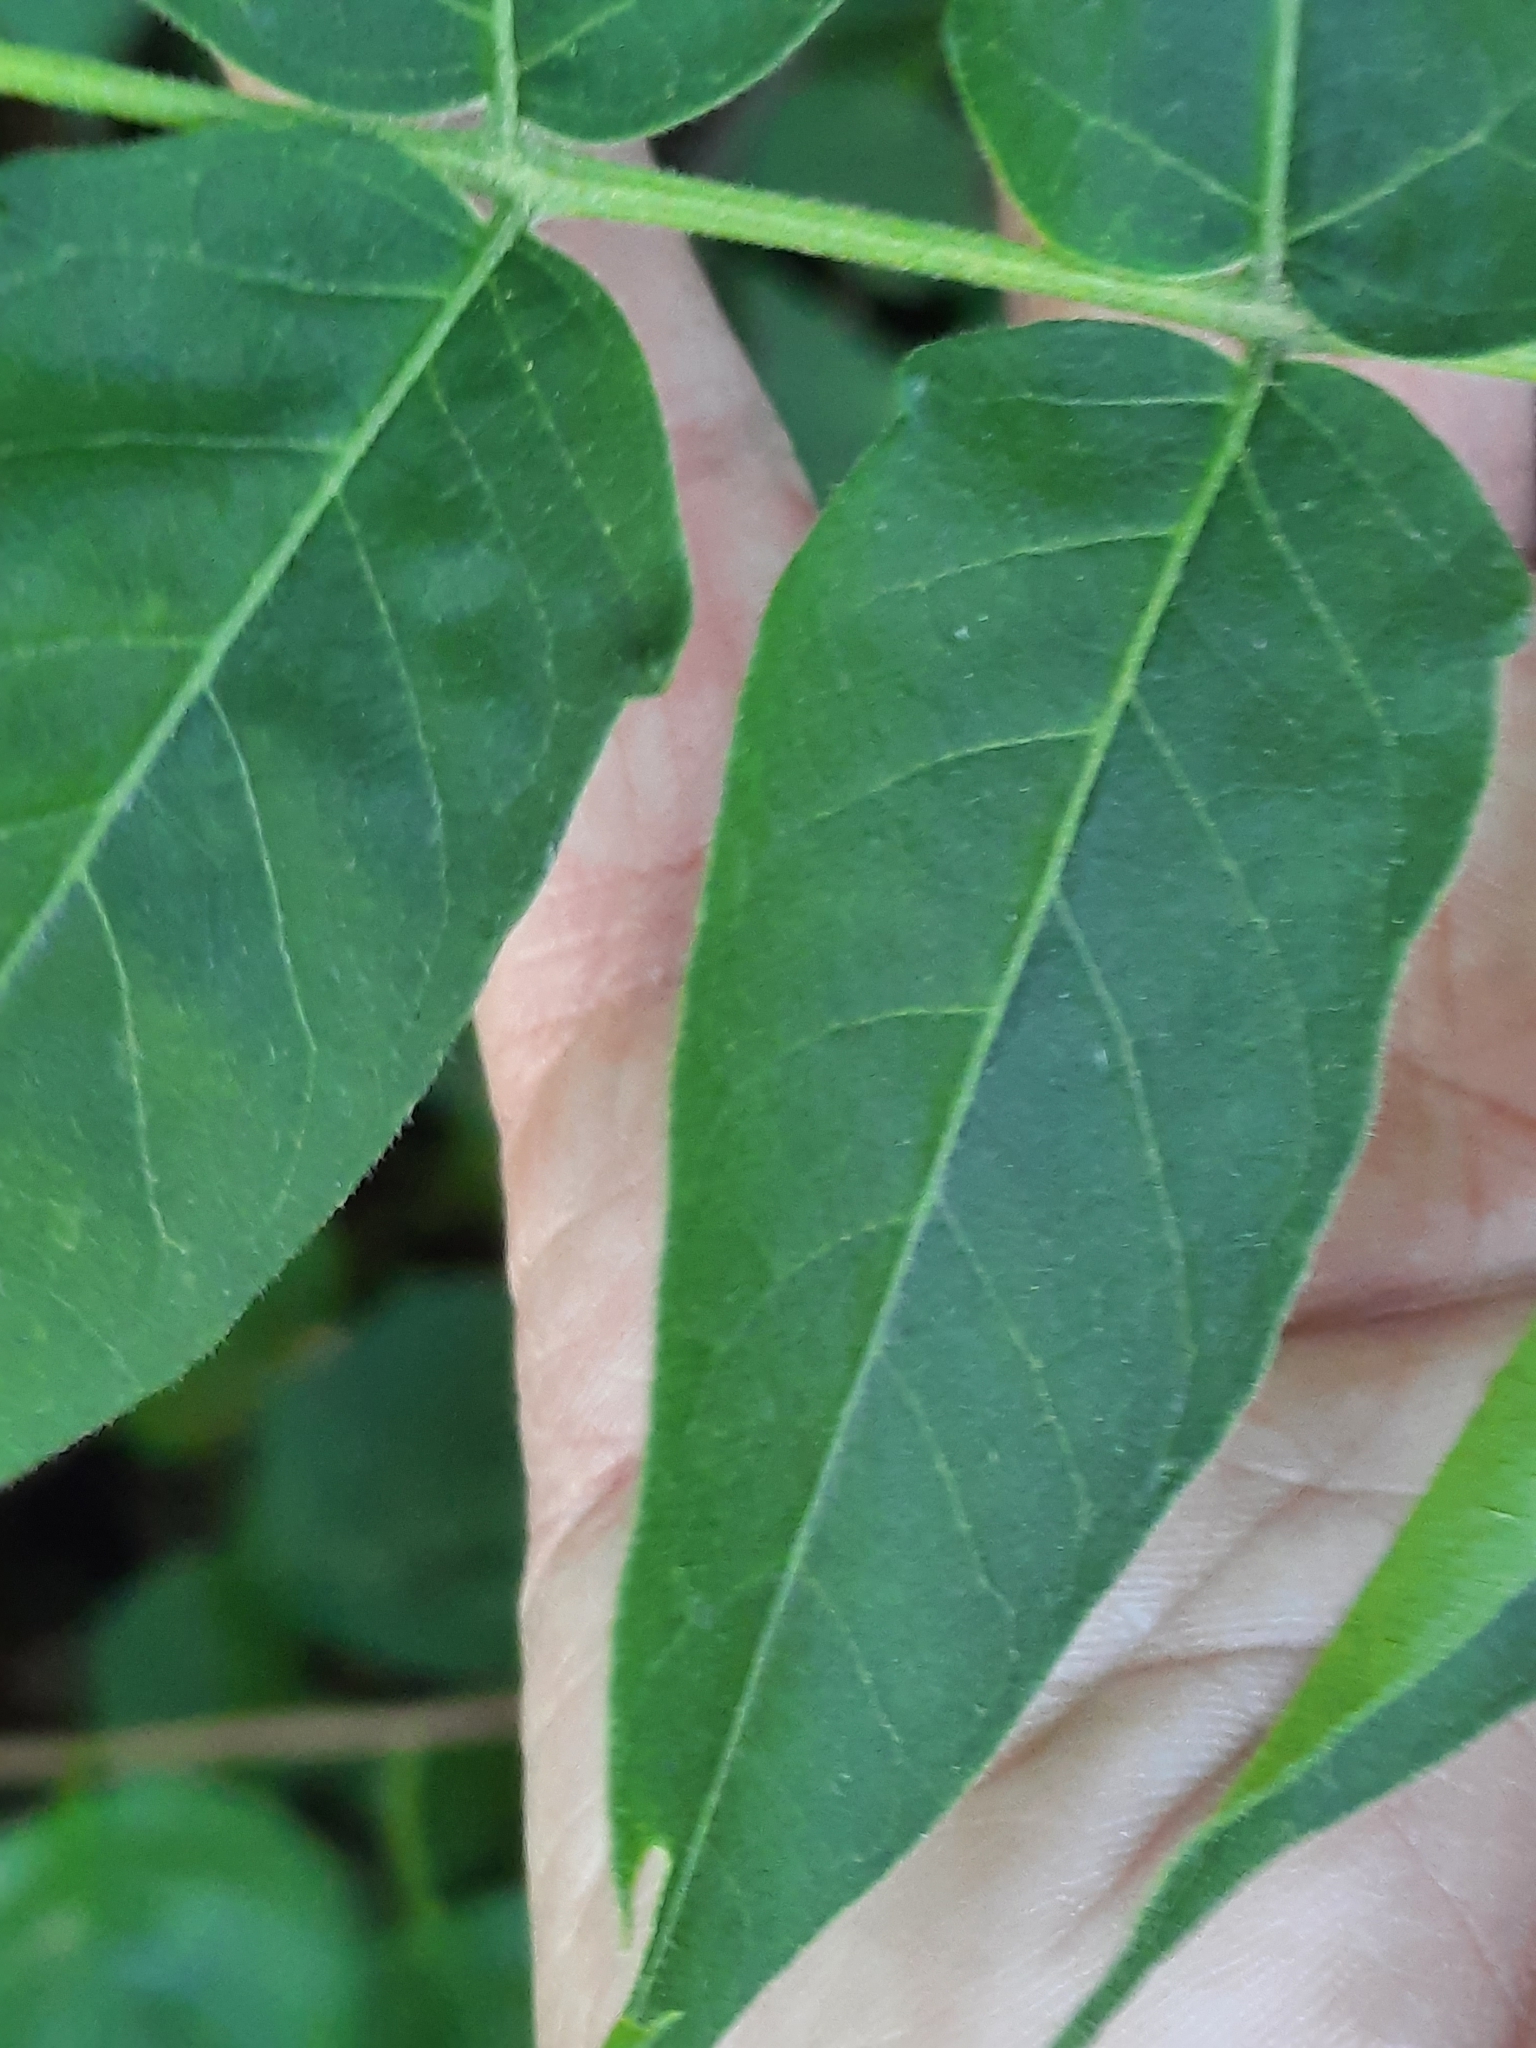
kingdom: Plantae
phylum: Tracheophyta
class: Magnoliopsida
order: Sapindales
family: Simaroubaceae
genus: Ailanthus
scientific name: Ailanthus altissima
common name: Tree-of-heaven
